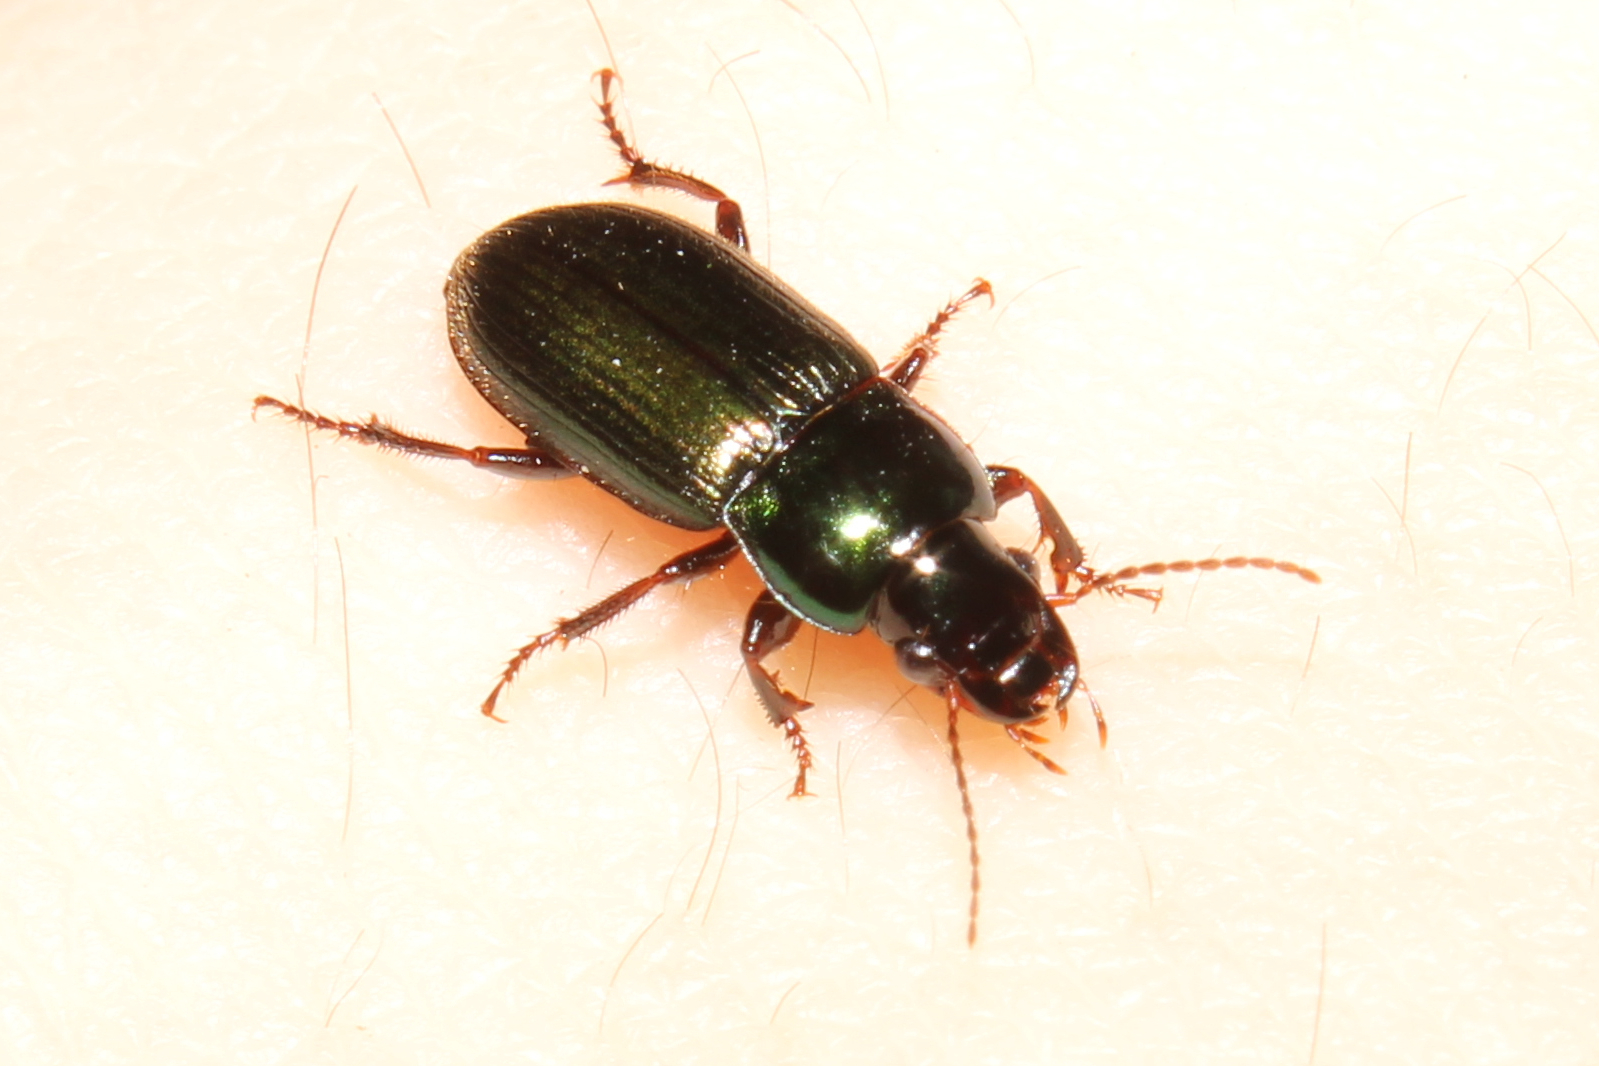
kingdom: Animalia
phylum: Arthropoda
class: Insecta
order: Coleoptera
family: Carabidae
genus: Harpalus
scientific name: Harpalus affinis
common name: Polychrome harp ground beetle
